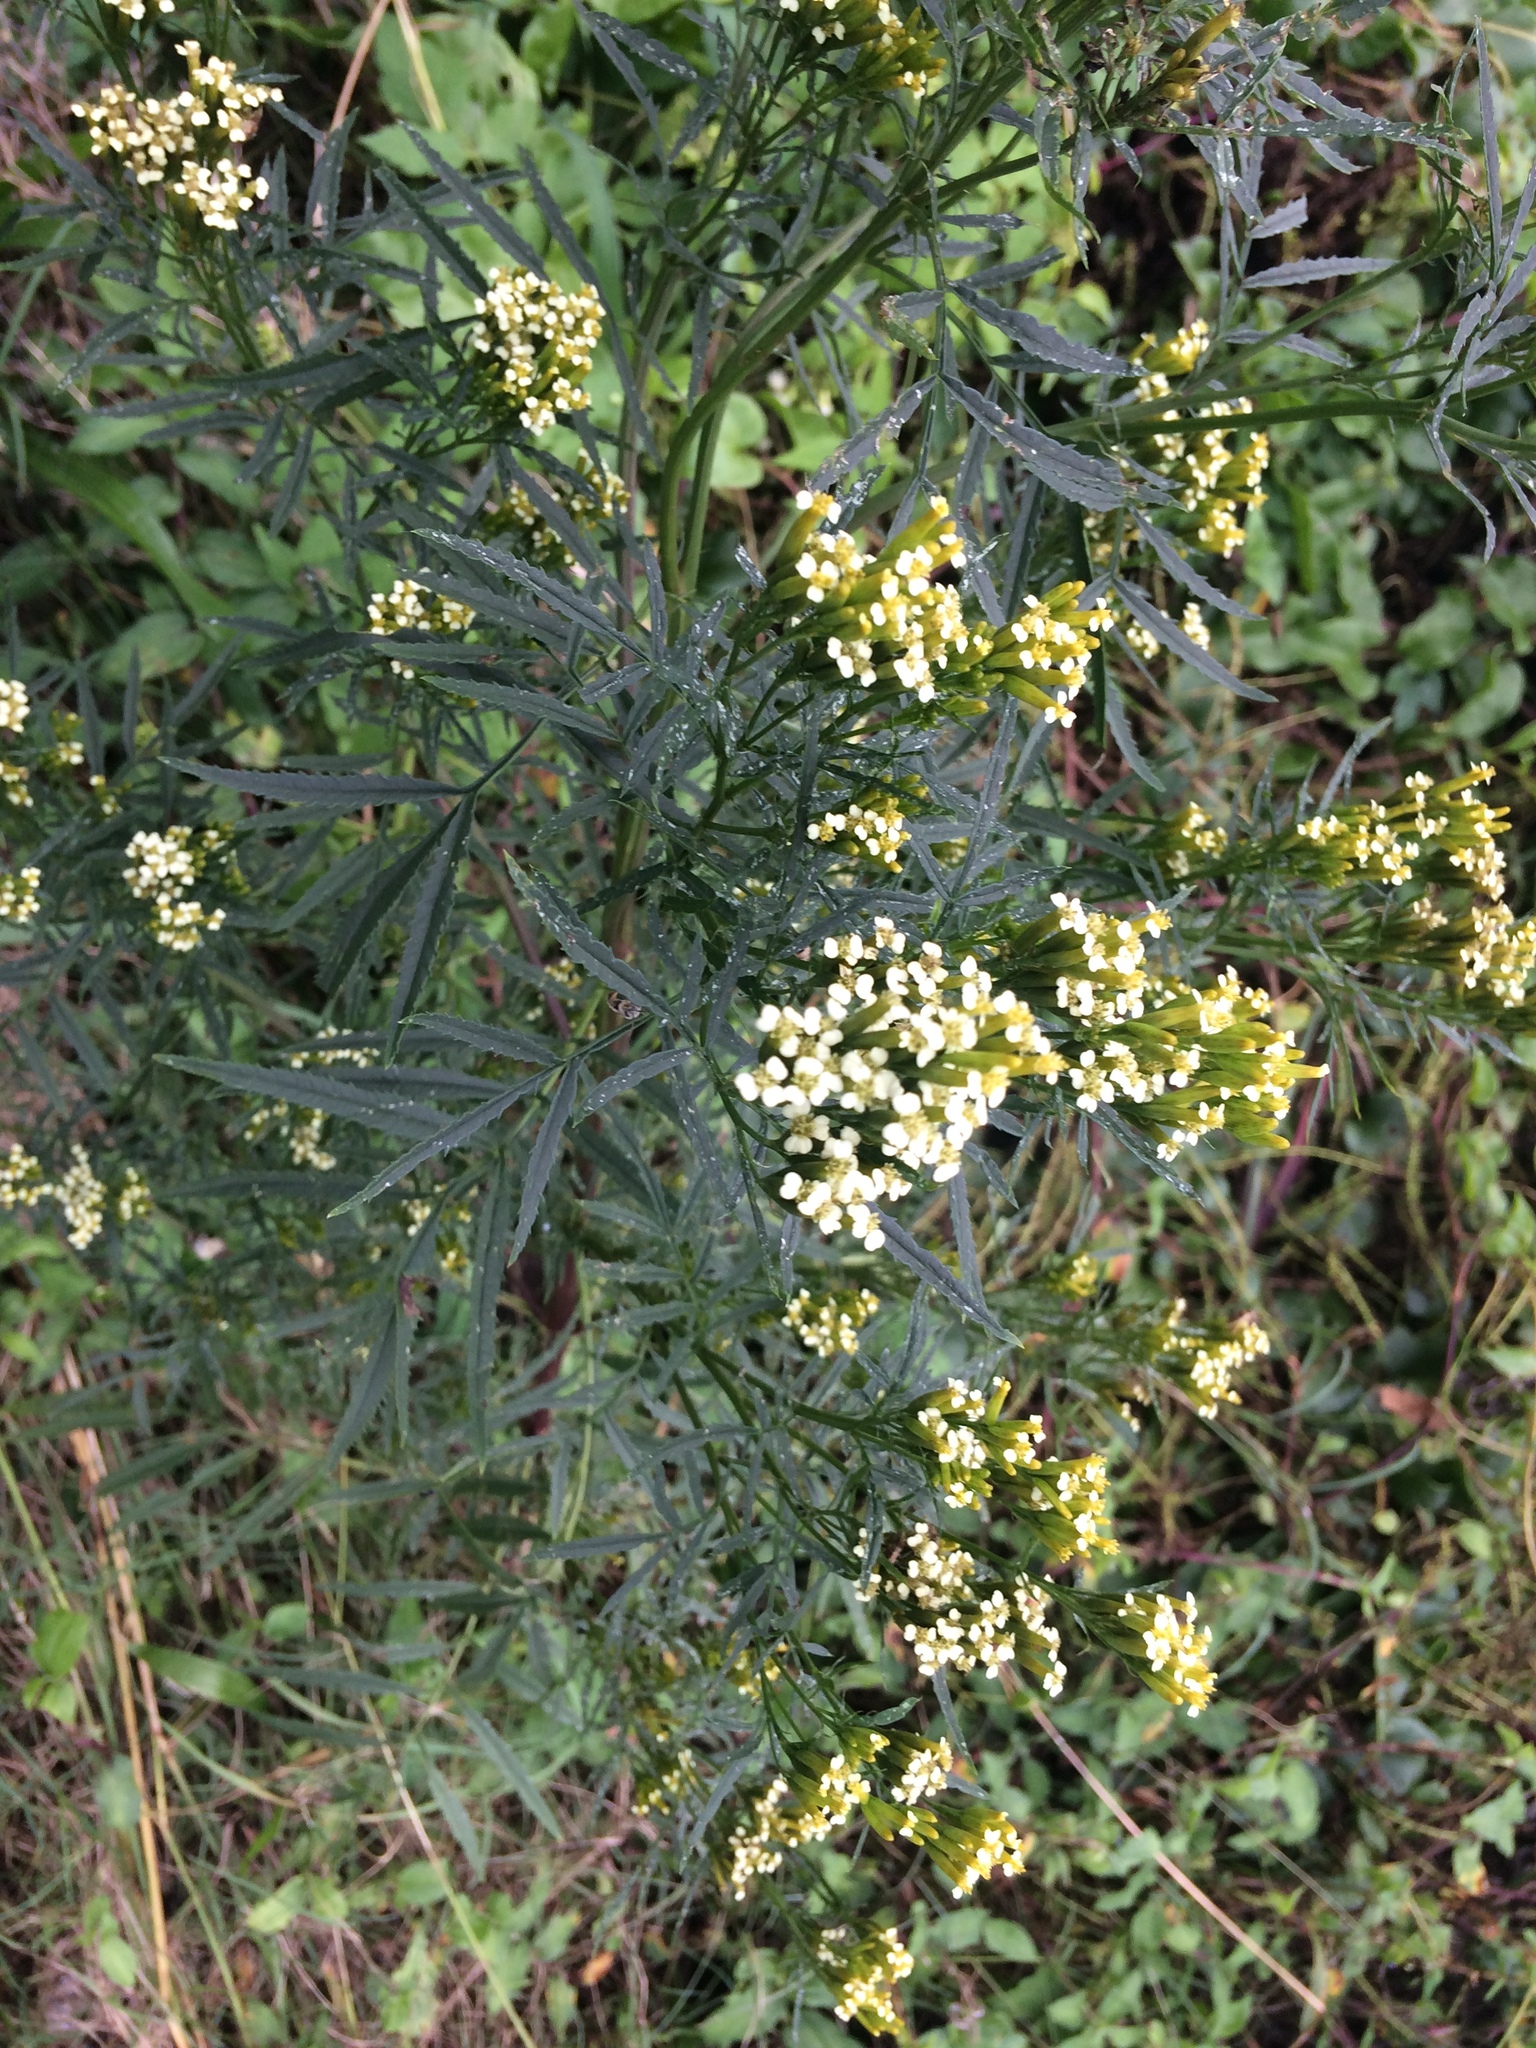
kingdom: Plantae
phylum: Tracheophyta
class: Magnoliopsida
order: Asterales
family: Asteraceae
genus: Tagetes
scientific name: Tagetes minuta
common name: Muster john henry
